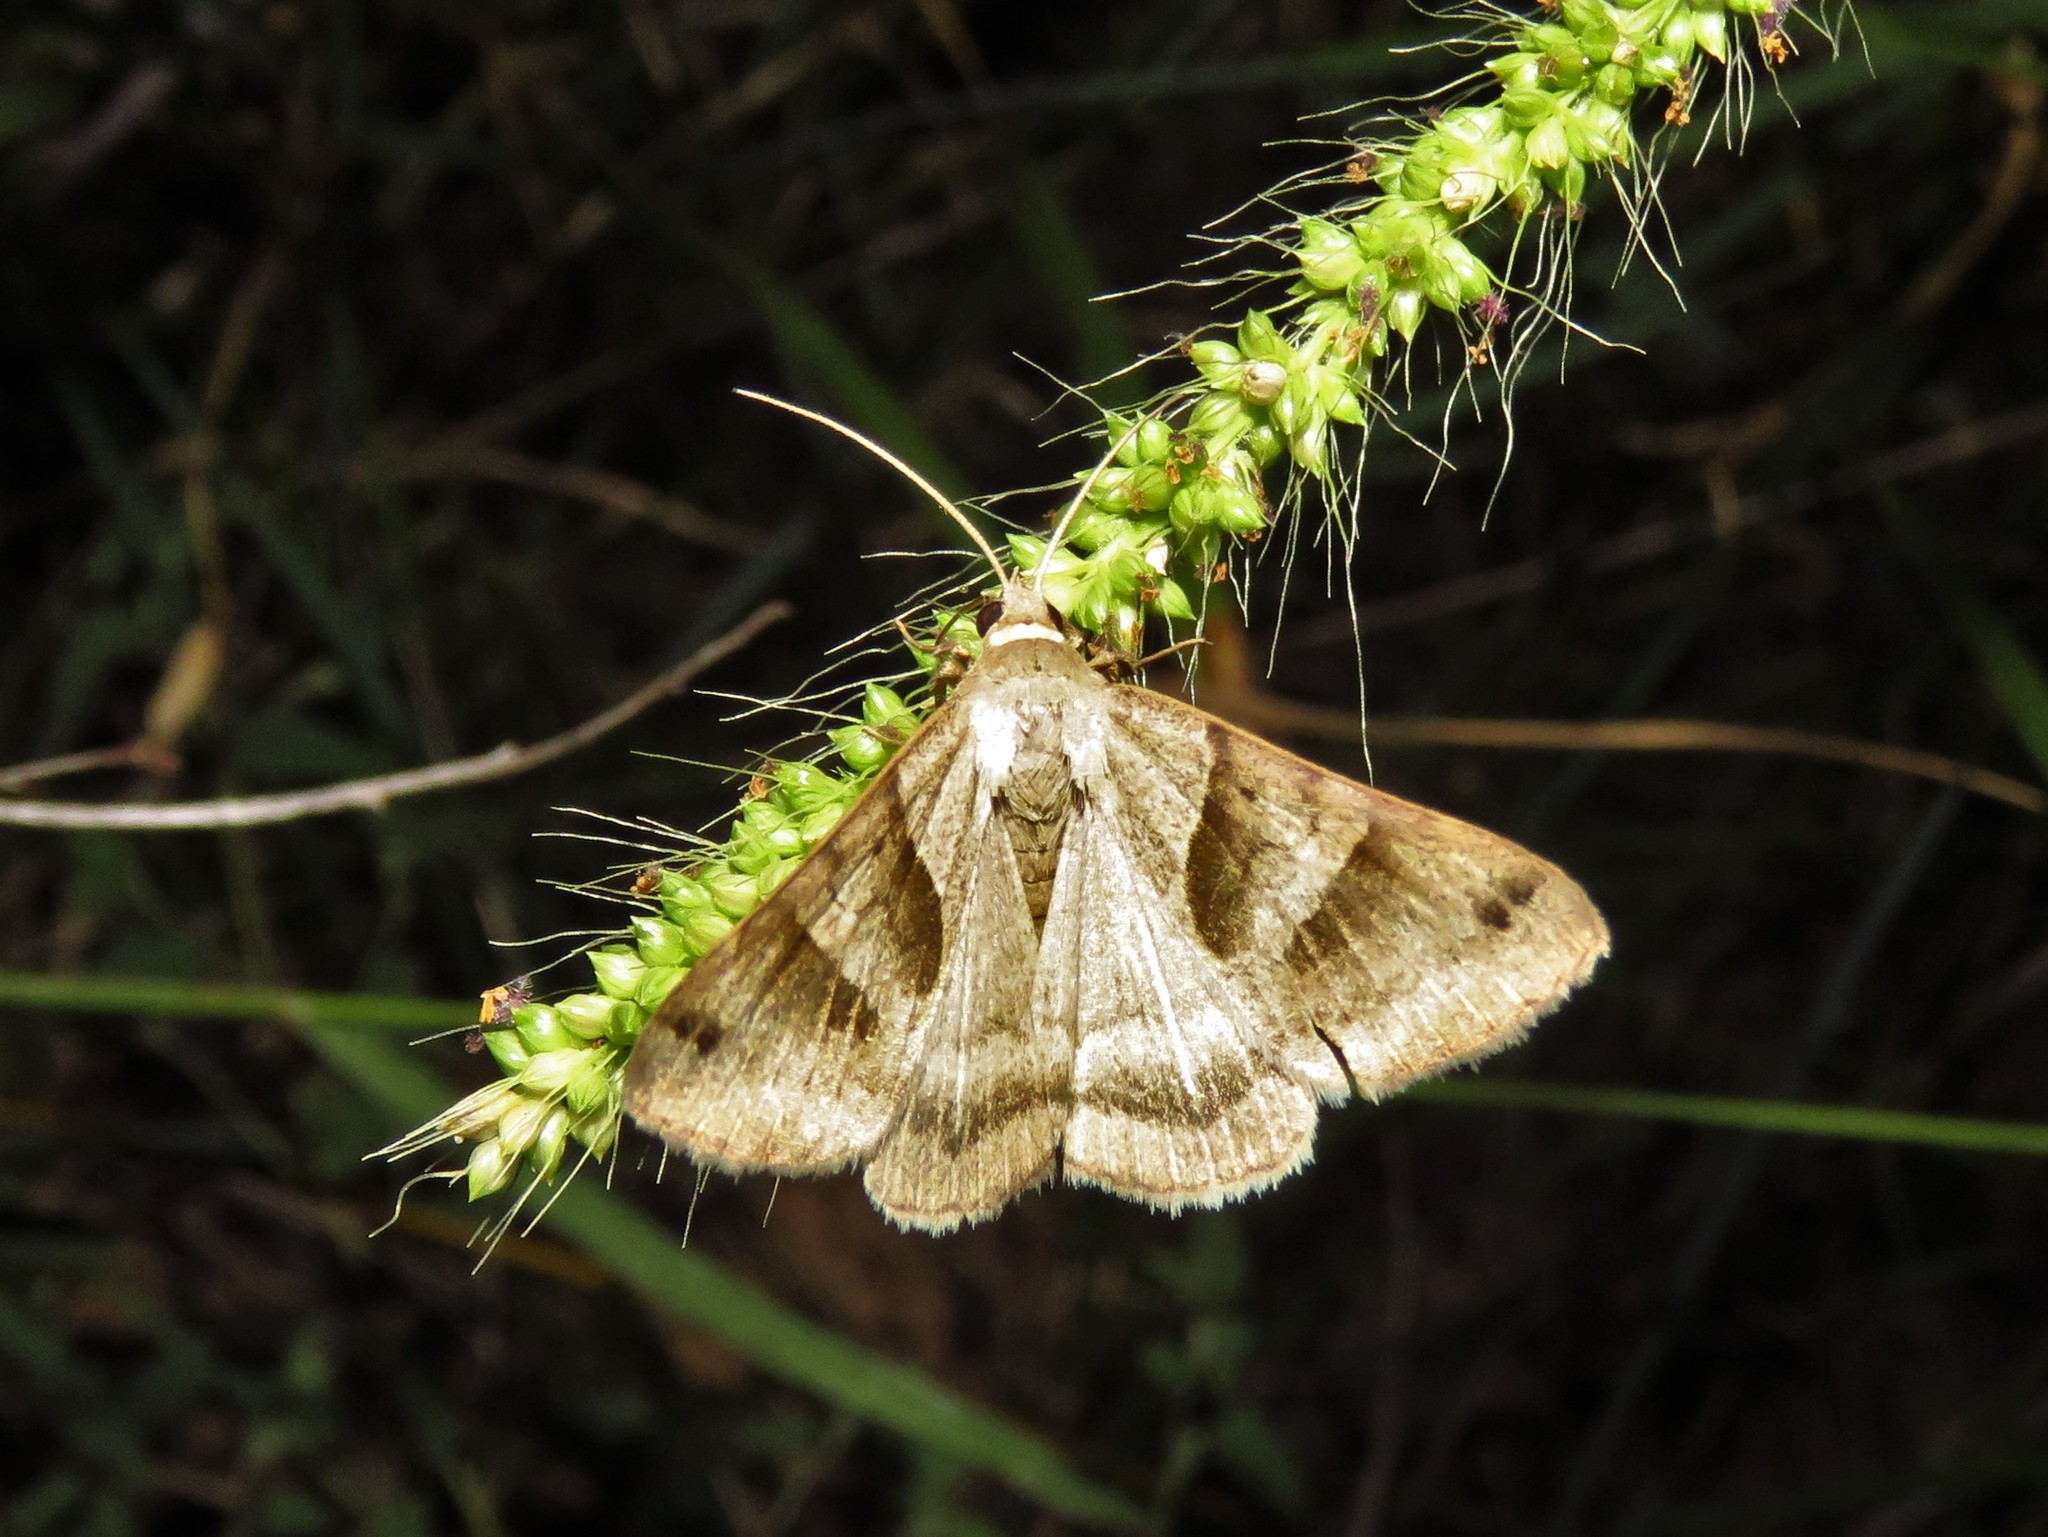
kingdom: Animalia
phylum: Arthropoda
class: Insecta
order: Lepidoptera
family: Erebidae
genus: Caenurgina
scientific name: Caenurgina erechtea
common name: Forage looper moth
